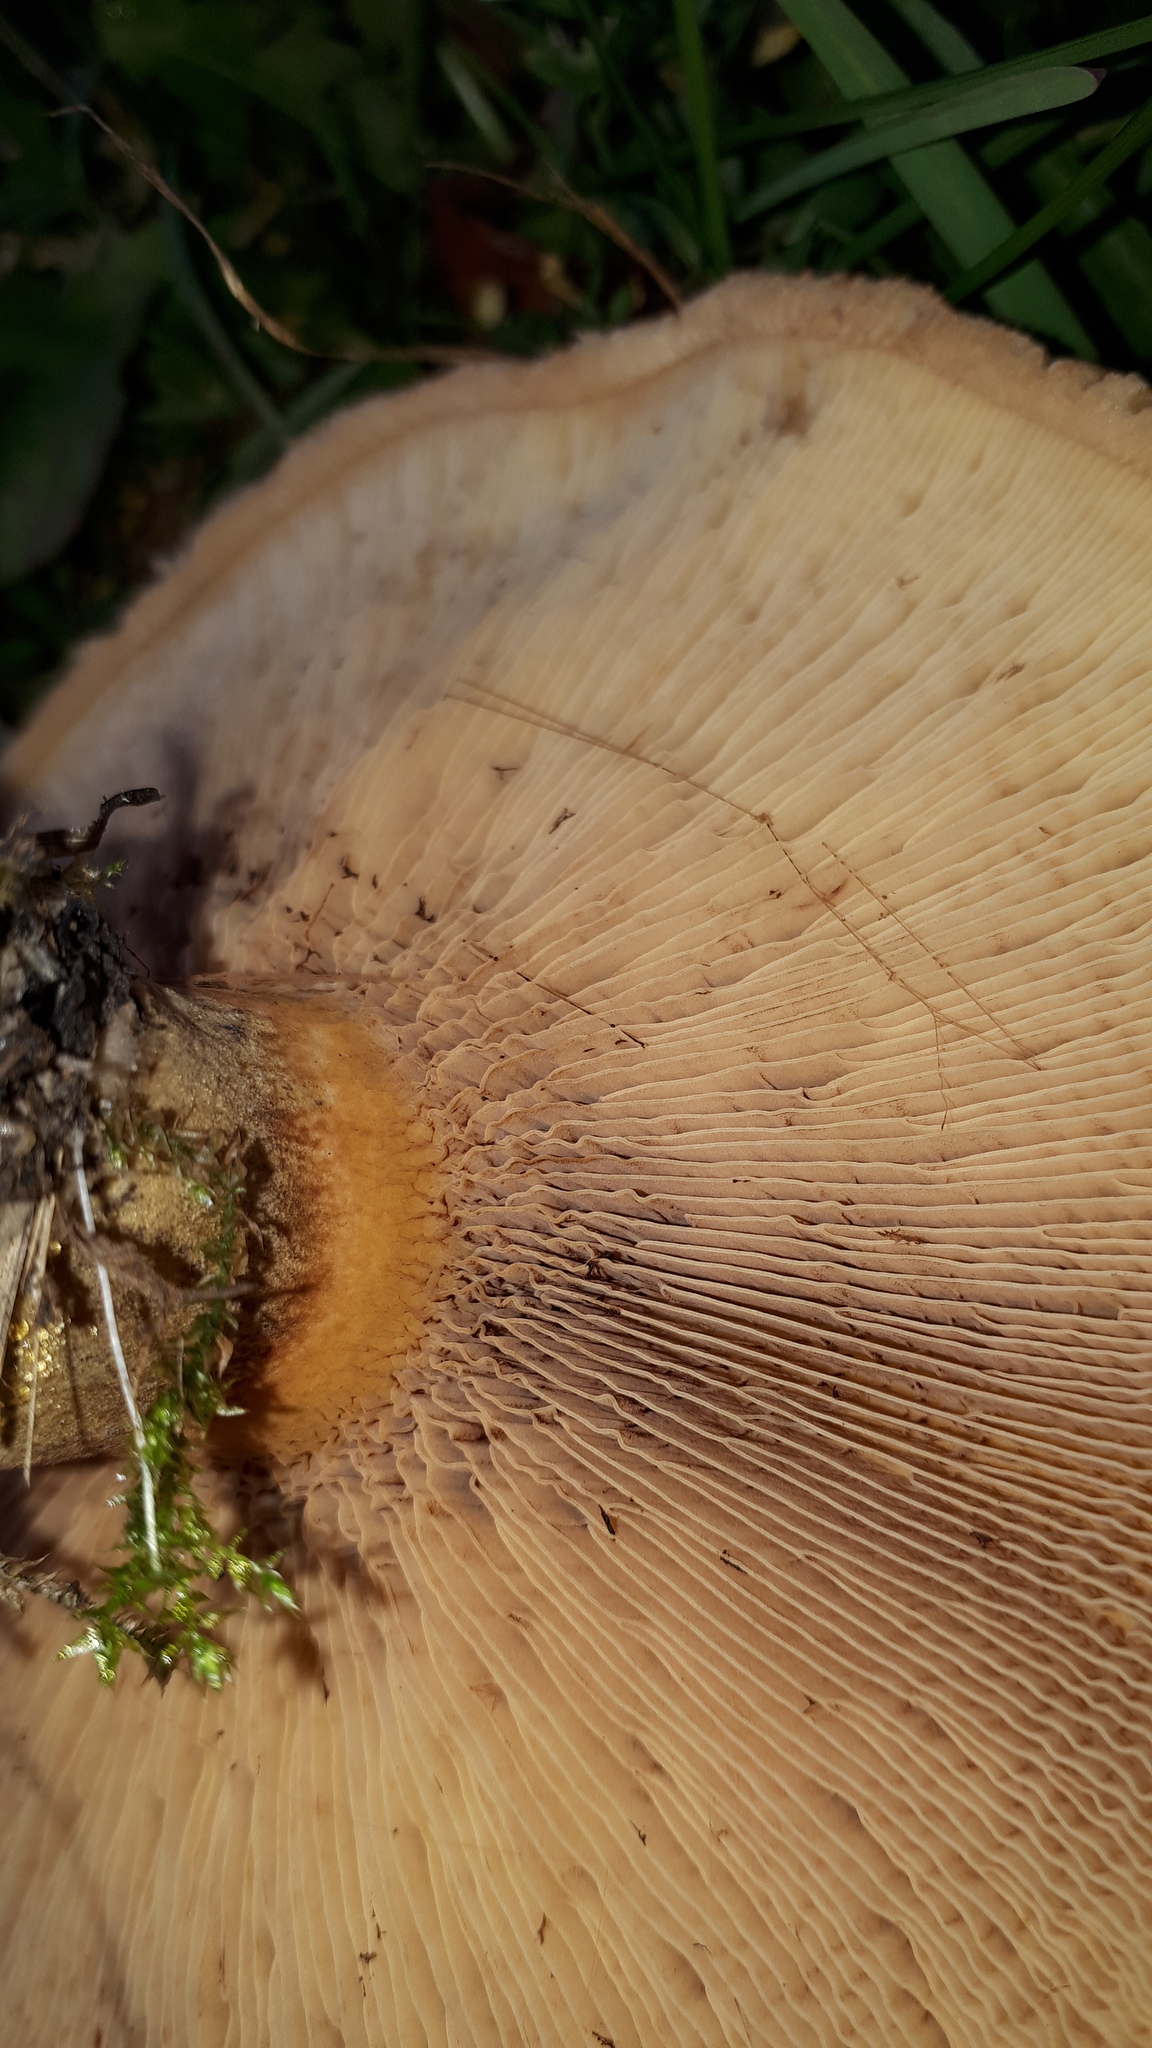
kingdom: Fungi
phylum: Basidiomycota
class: Agaricomycetes
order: Boletales
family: Paxillaceae
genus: Paxillus
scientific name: Paxillus involutus
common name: Brown roll rim
